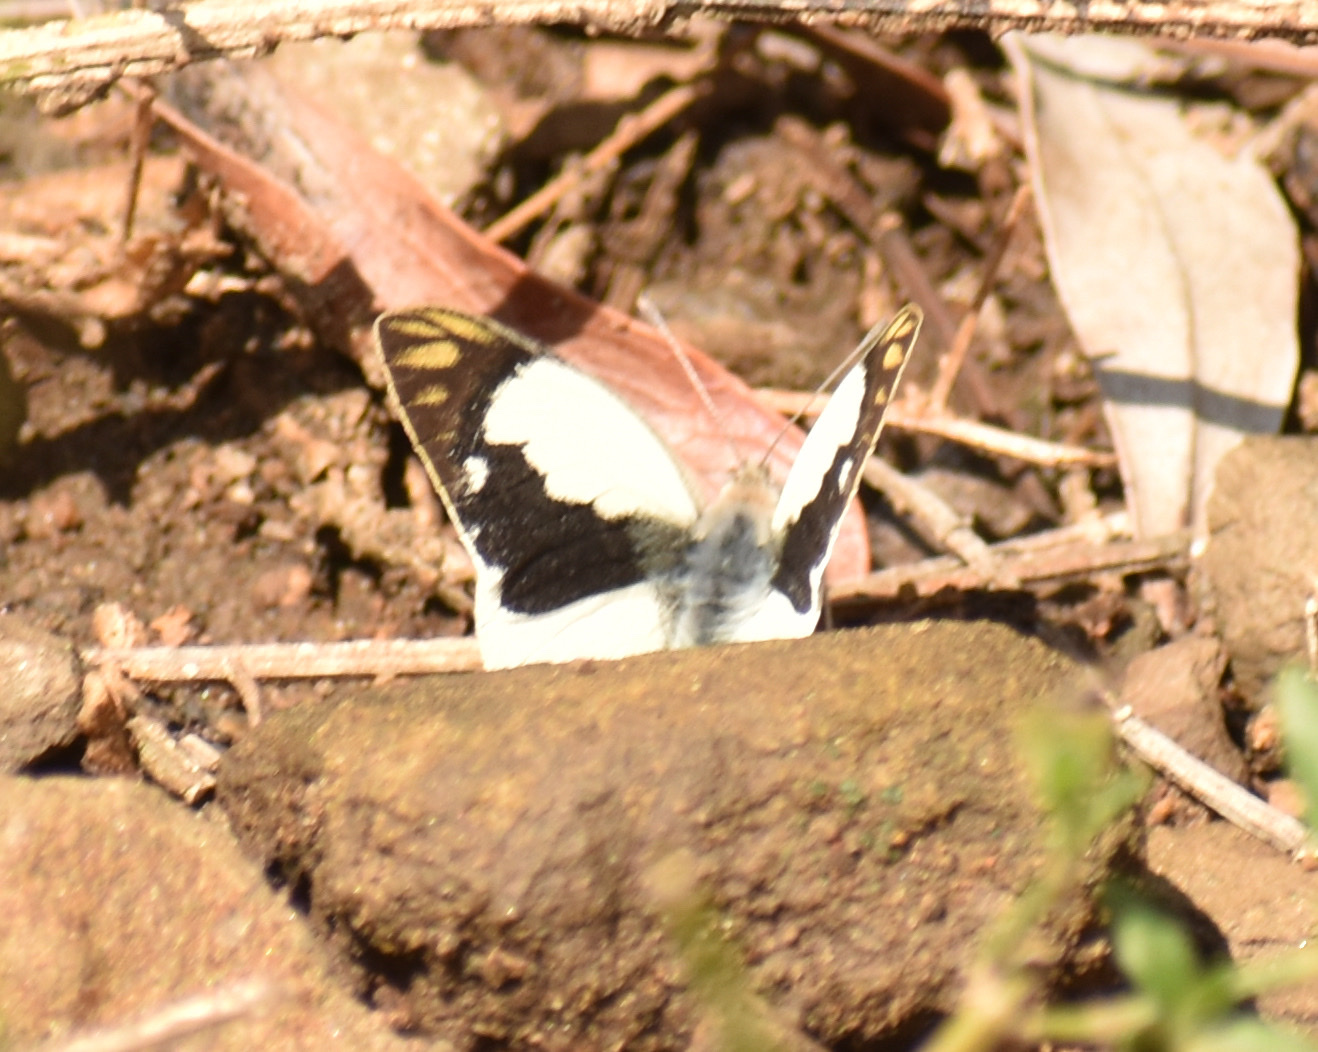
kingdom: Animalia
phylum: Arthropoda
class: Insecta
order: Lepidoptera
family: Pieridae
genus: Colotis
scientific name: Colotis eris
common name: Banded gold tip
